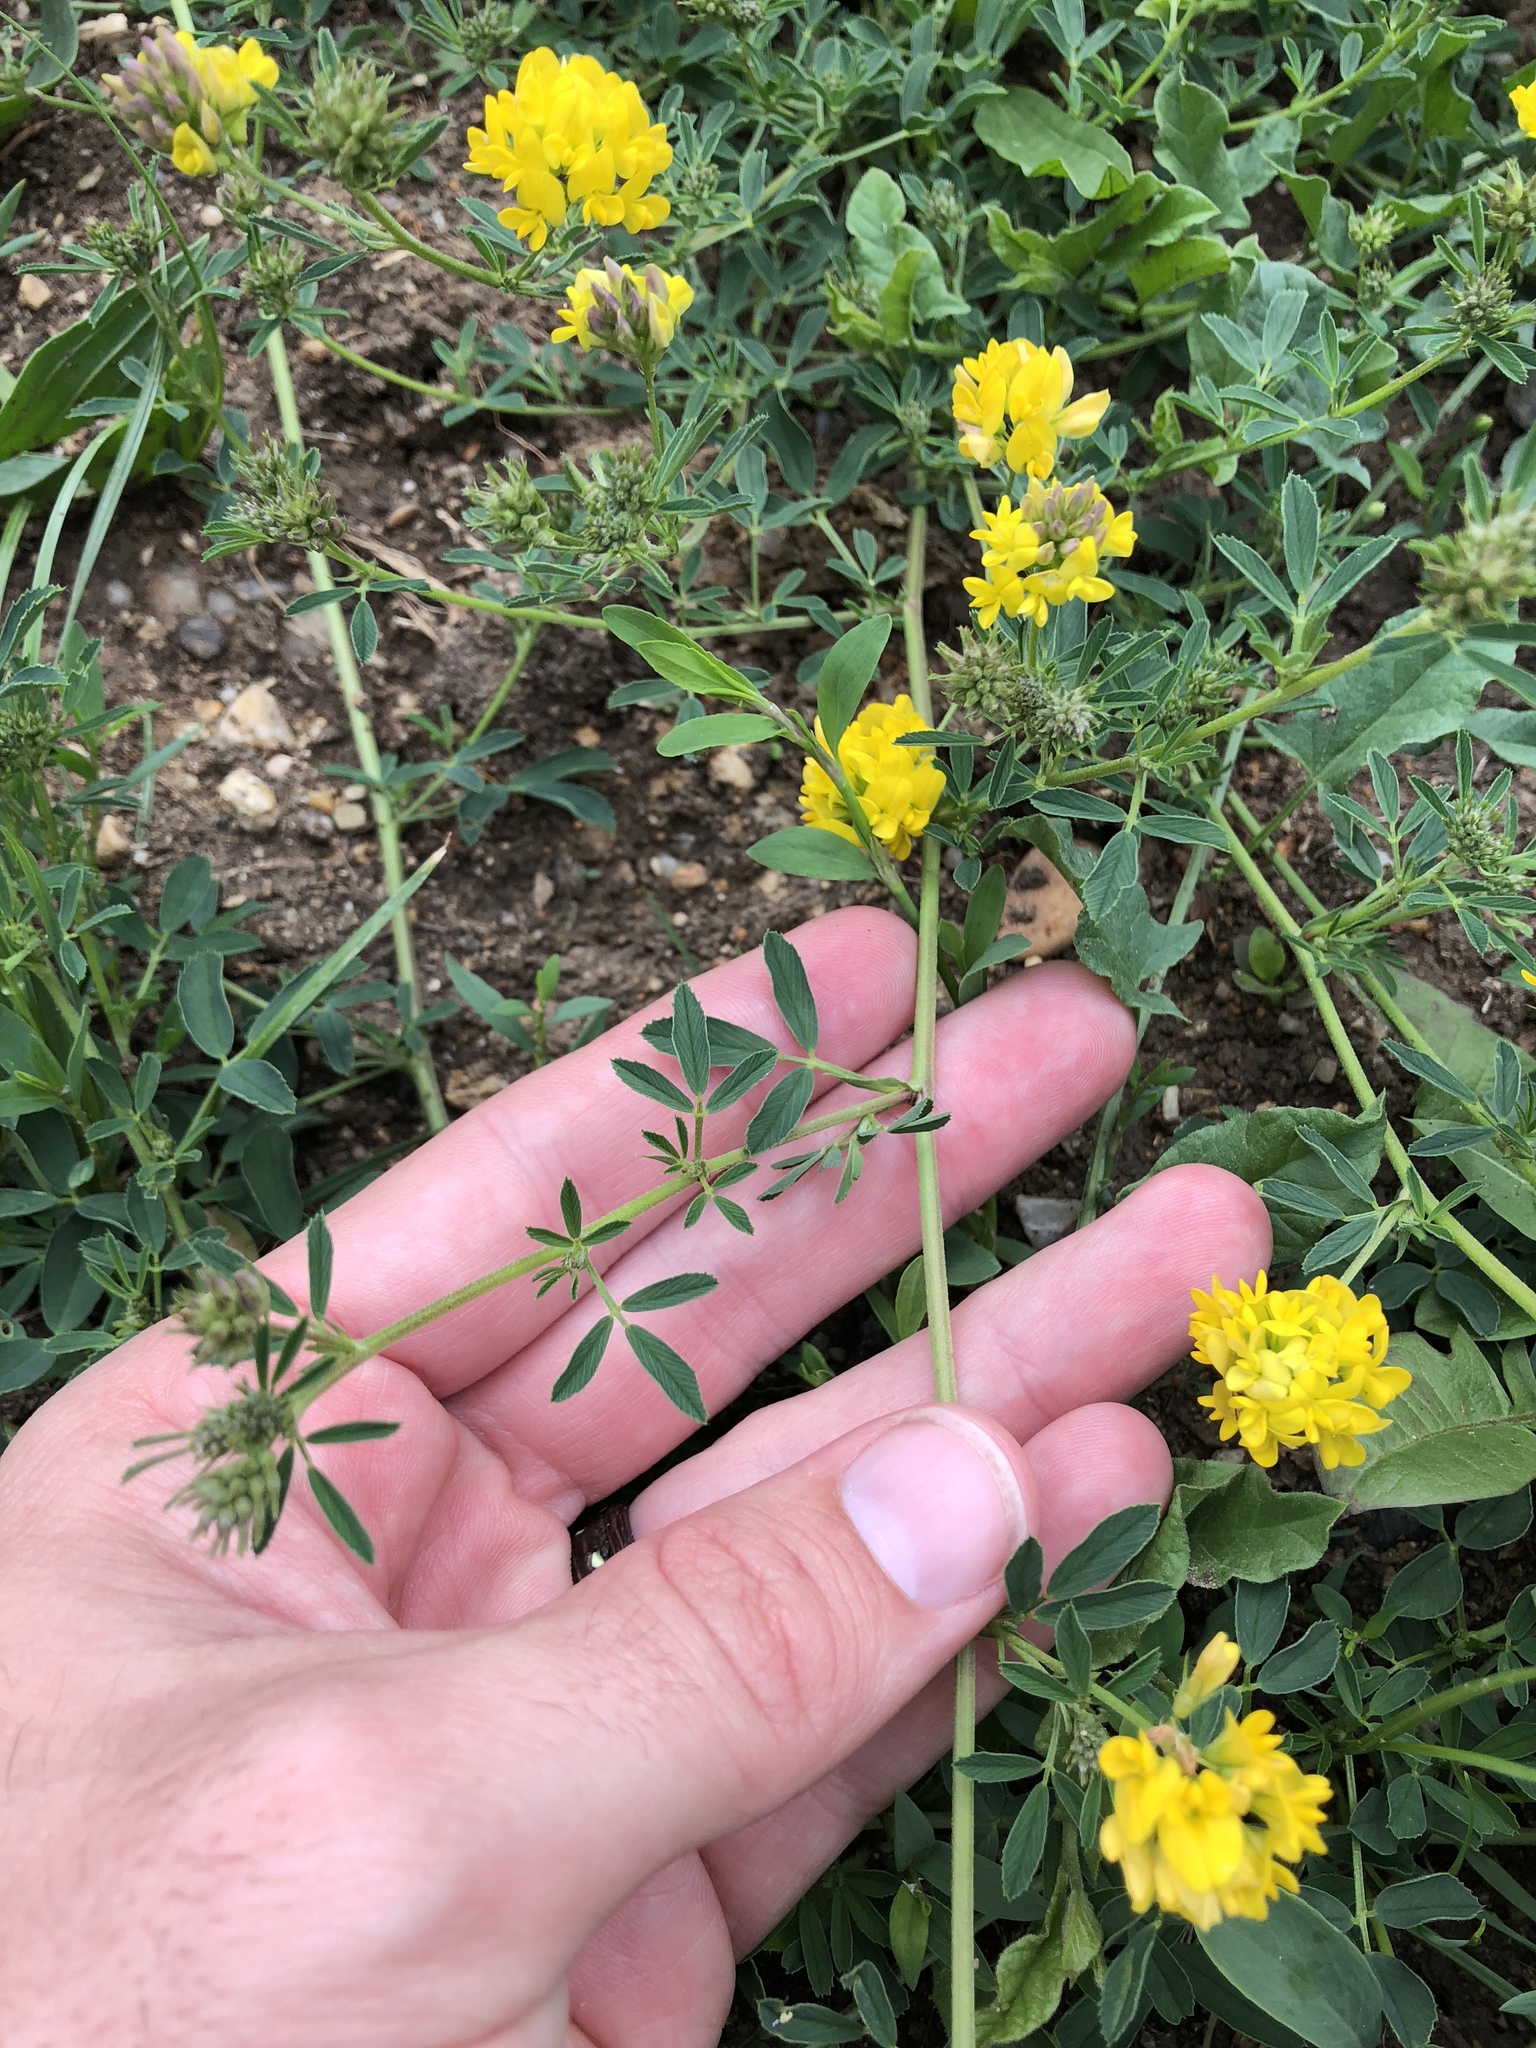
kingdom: Plantae
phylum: Tracheophyta
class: Magnoliopsida
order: Fabales
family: Fabaceae
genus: Medicago
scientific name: Medicago falcata
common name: Sickle medick
